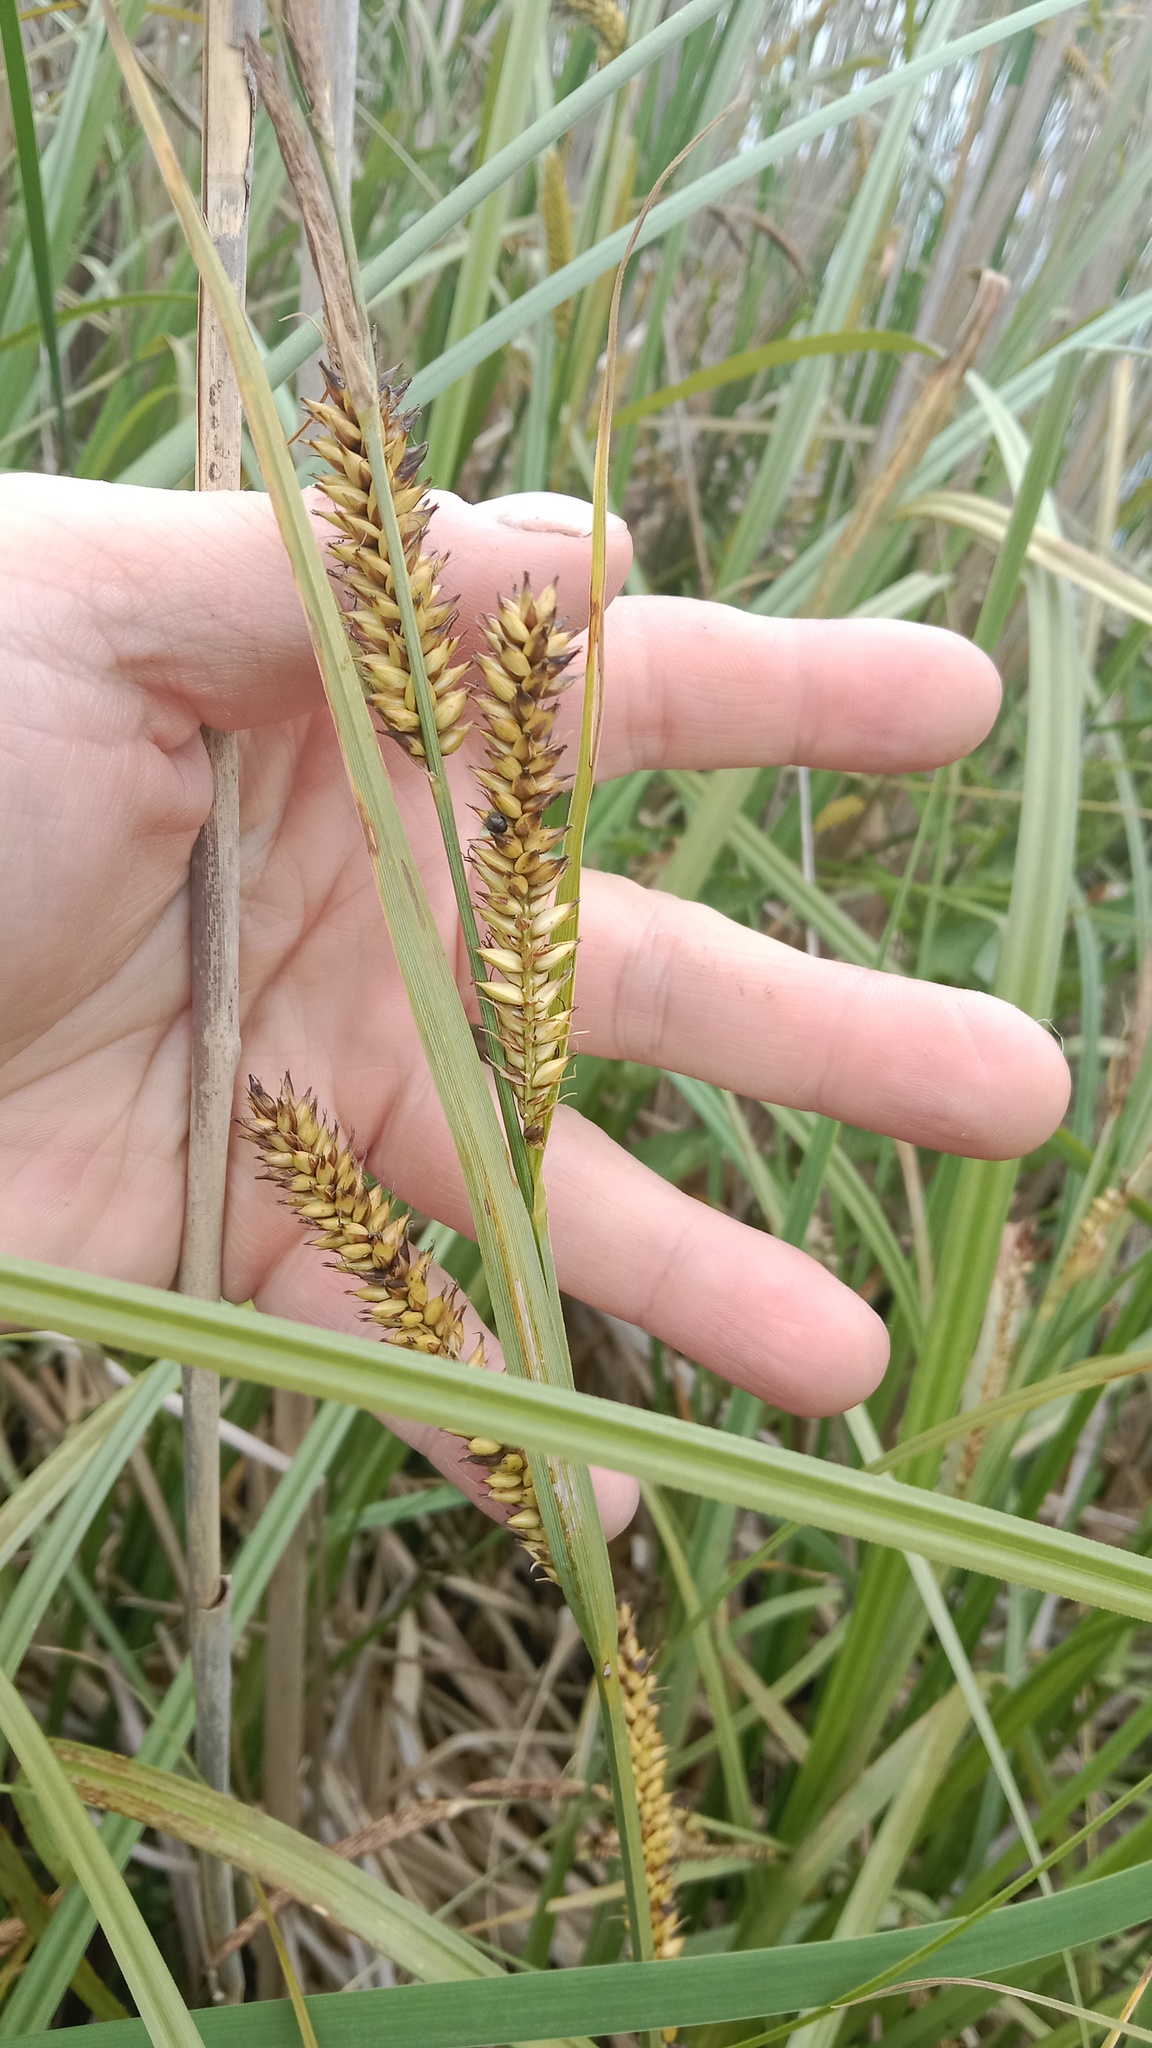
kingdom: Plantae
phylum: Tracheophyta
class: Liliopsida
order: Poales
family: Cyperaceae
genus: Carex
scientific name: Carex riparia
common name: Greater pond-sedge
